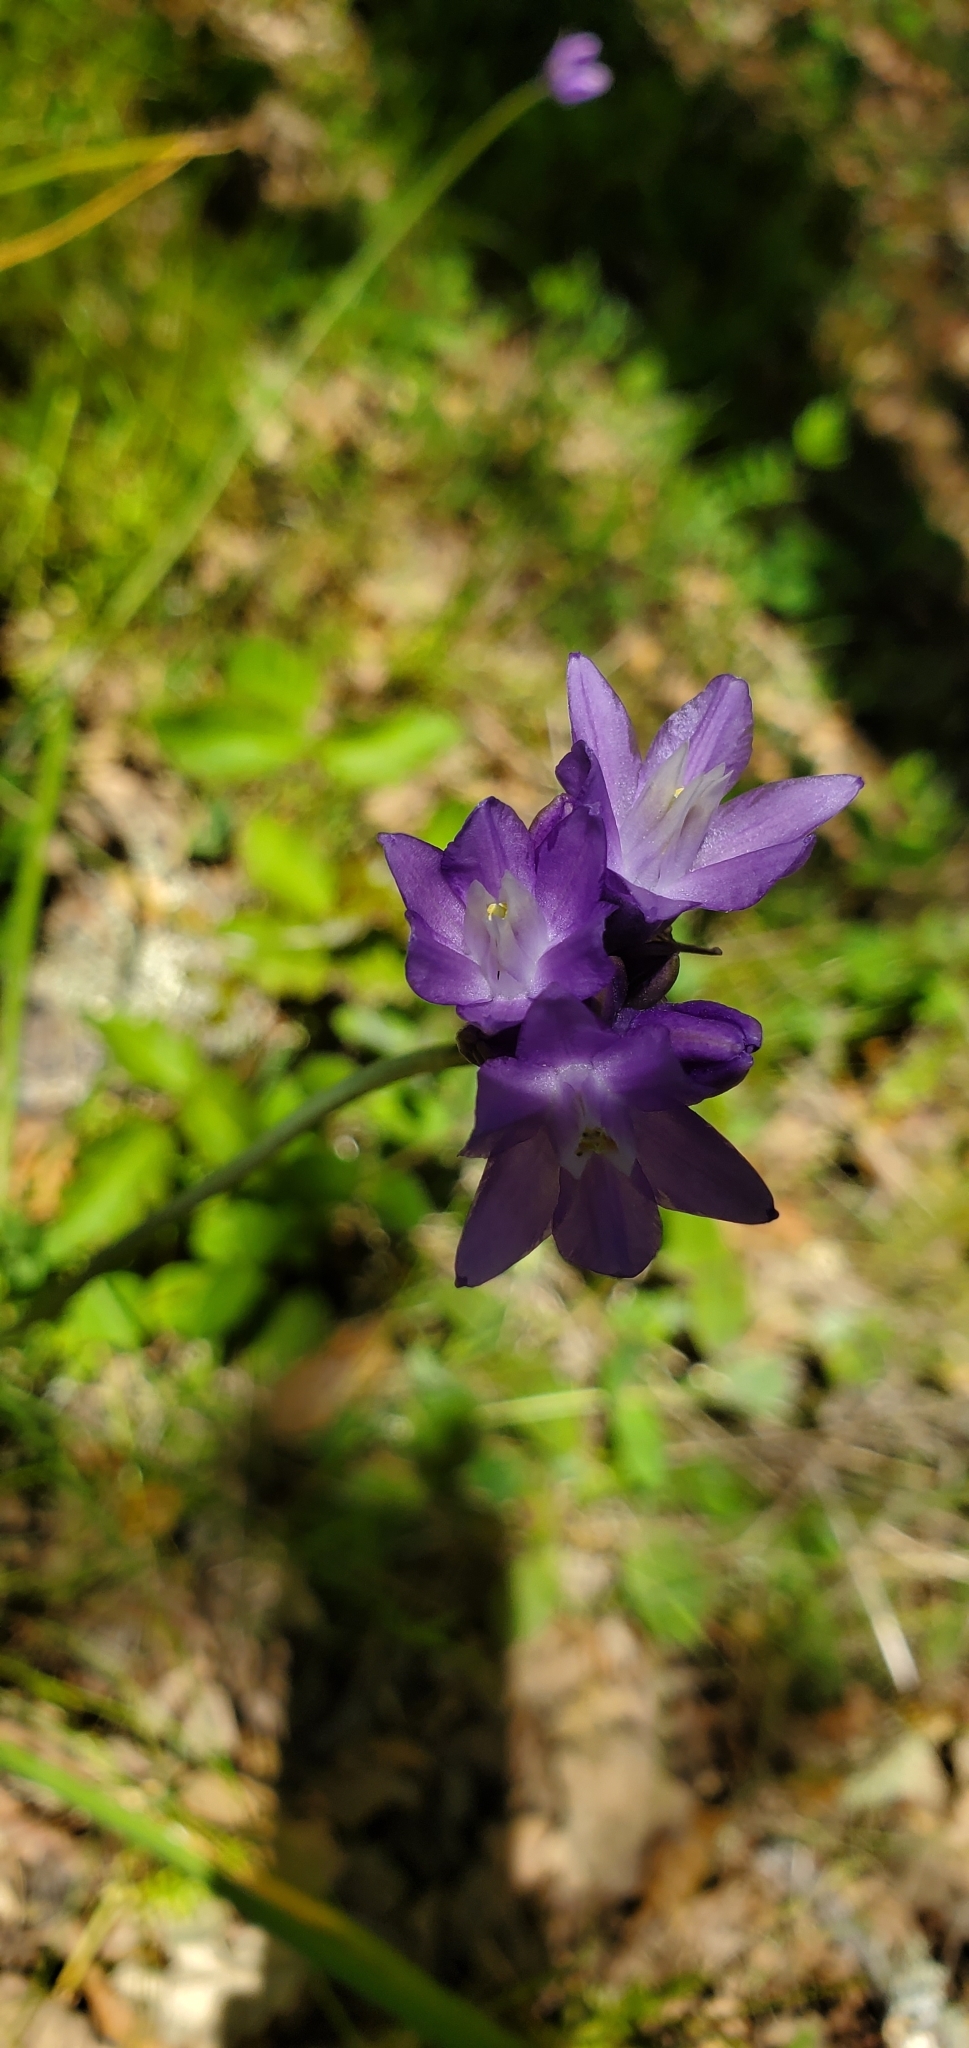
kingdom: Plantae
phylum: Tracheophyta
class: Liliopsida
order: Asparagales
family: Asparagaceae
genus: Dipterostemon
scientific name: Dipterostemon capitatus
